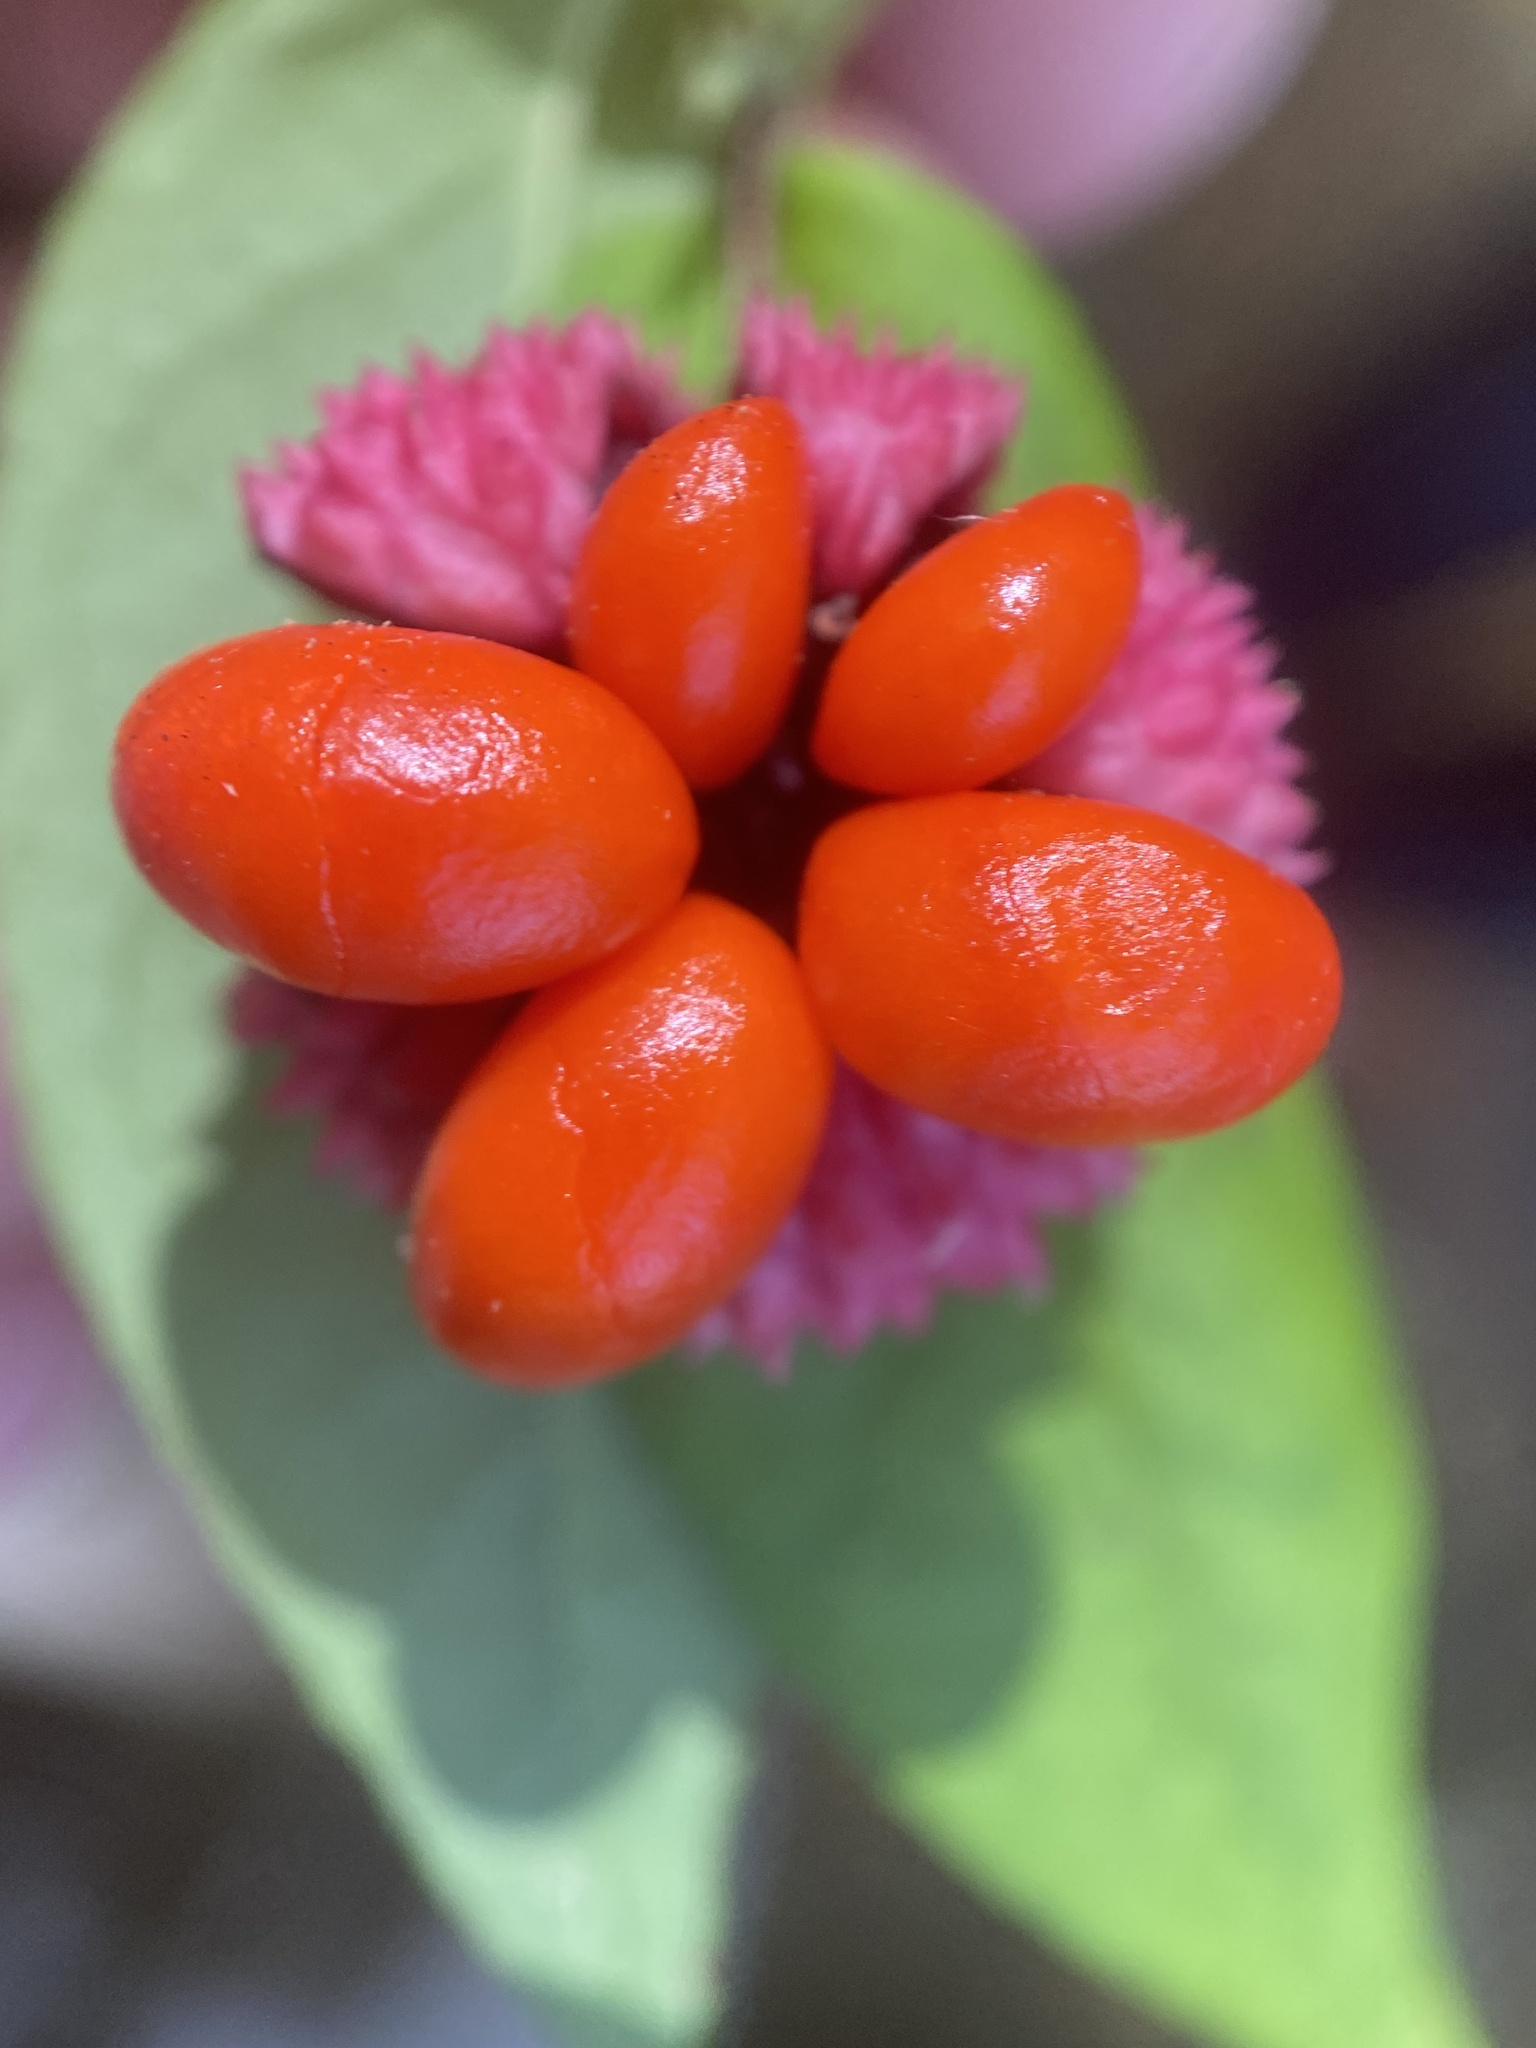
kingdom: Plantae
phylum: Tracheophyta
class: Magnoliopsida
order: Celastrales
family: Celastraceae
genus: Euonymus
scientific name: Euonymus americanus
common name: Bursting-heart
